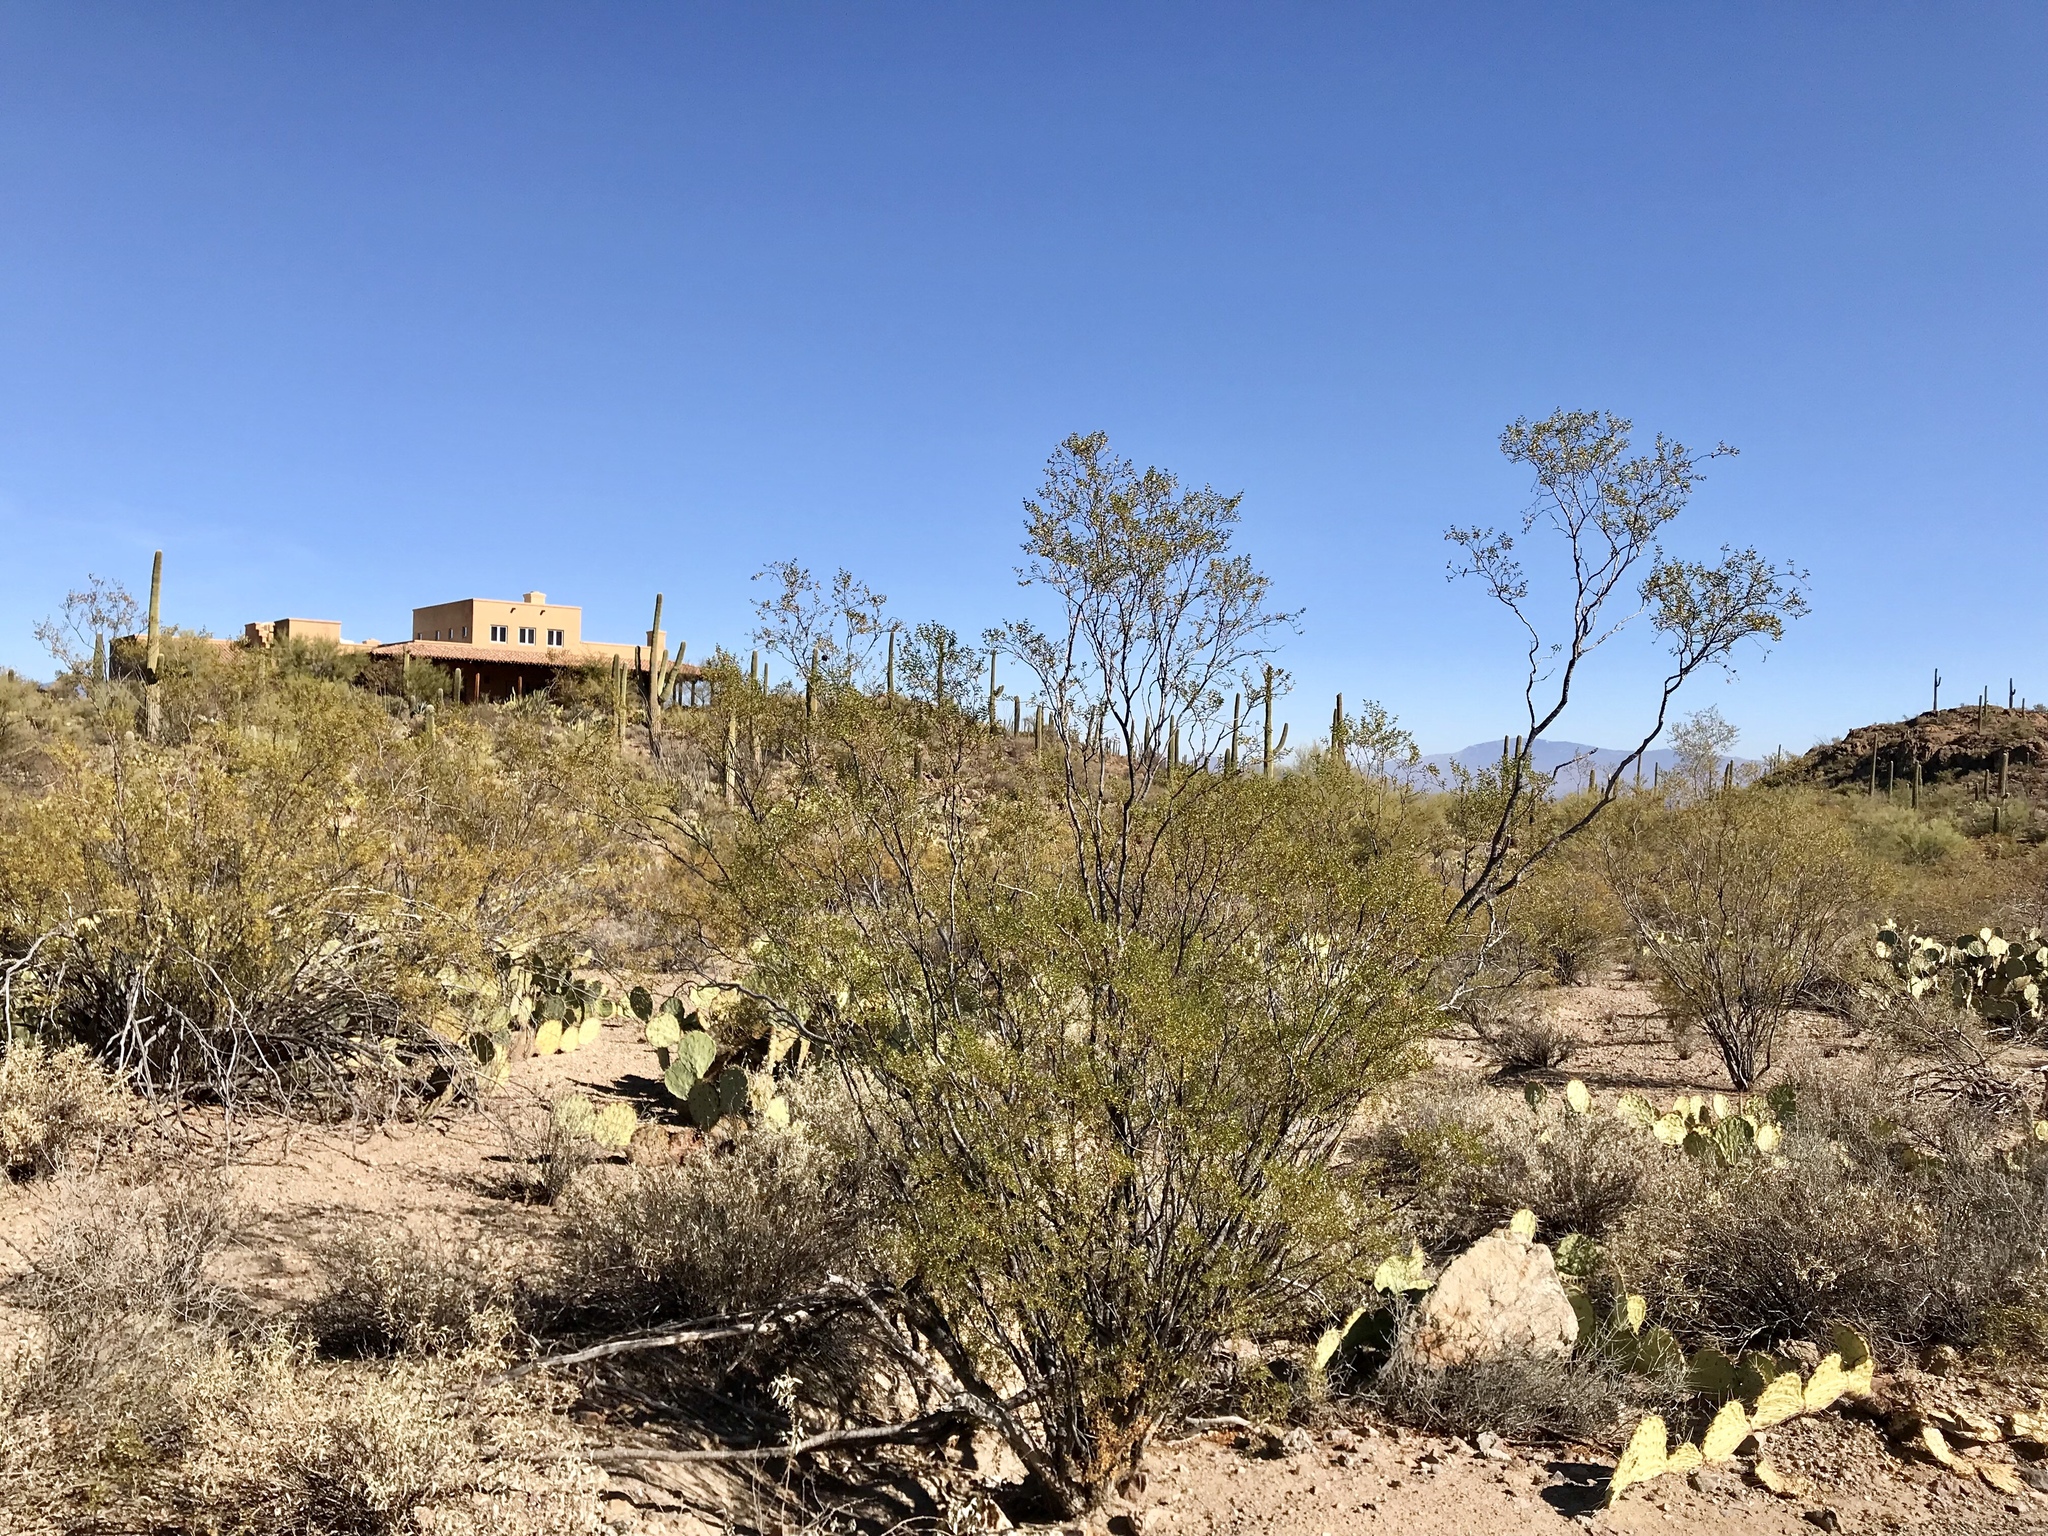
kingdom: Plantae
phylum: Tracheophyta
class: Magnoliopsida
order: Zygophyllales
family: Zygophyllaceae
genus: Larrea
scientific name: Larrea tridentata
